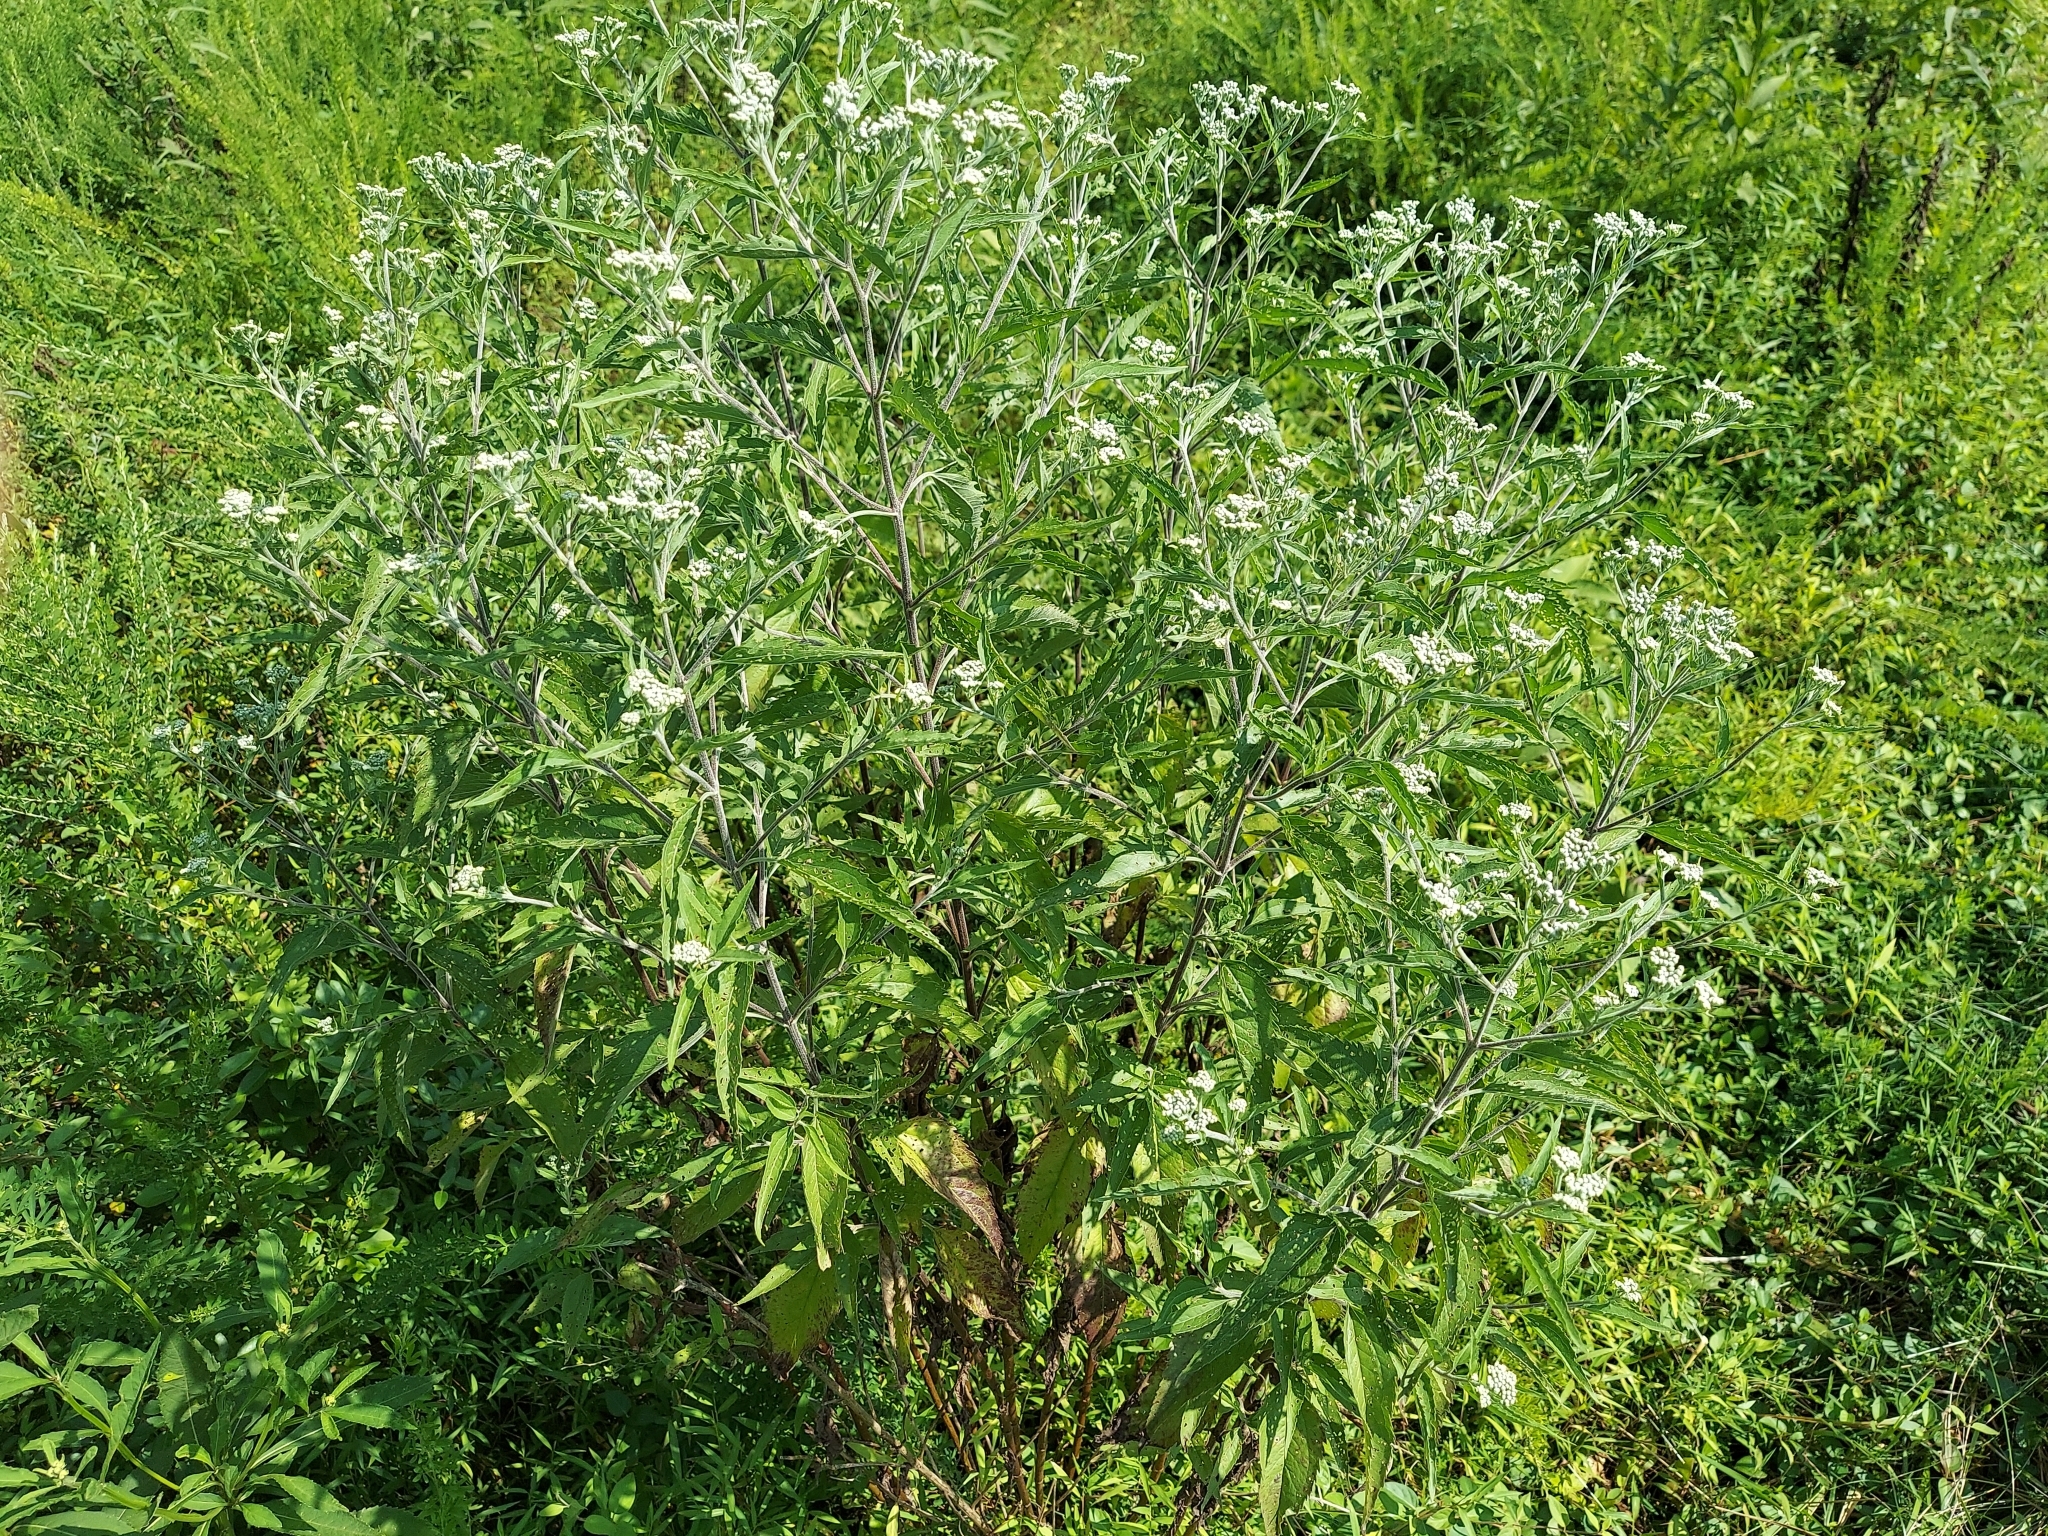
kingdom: Plantae
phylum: Tracheophyta
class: Magnoliopsida
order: Asterales
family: Asteraceae
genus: Eupatorium
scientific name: Eupatorium serotinum
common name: Late boneset
